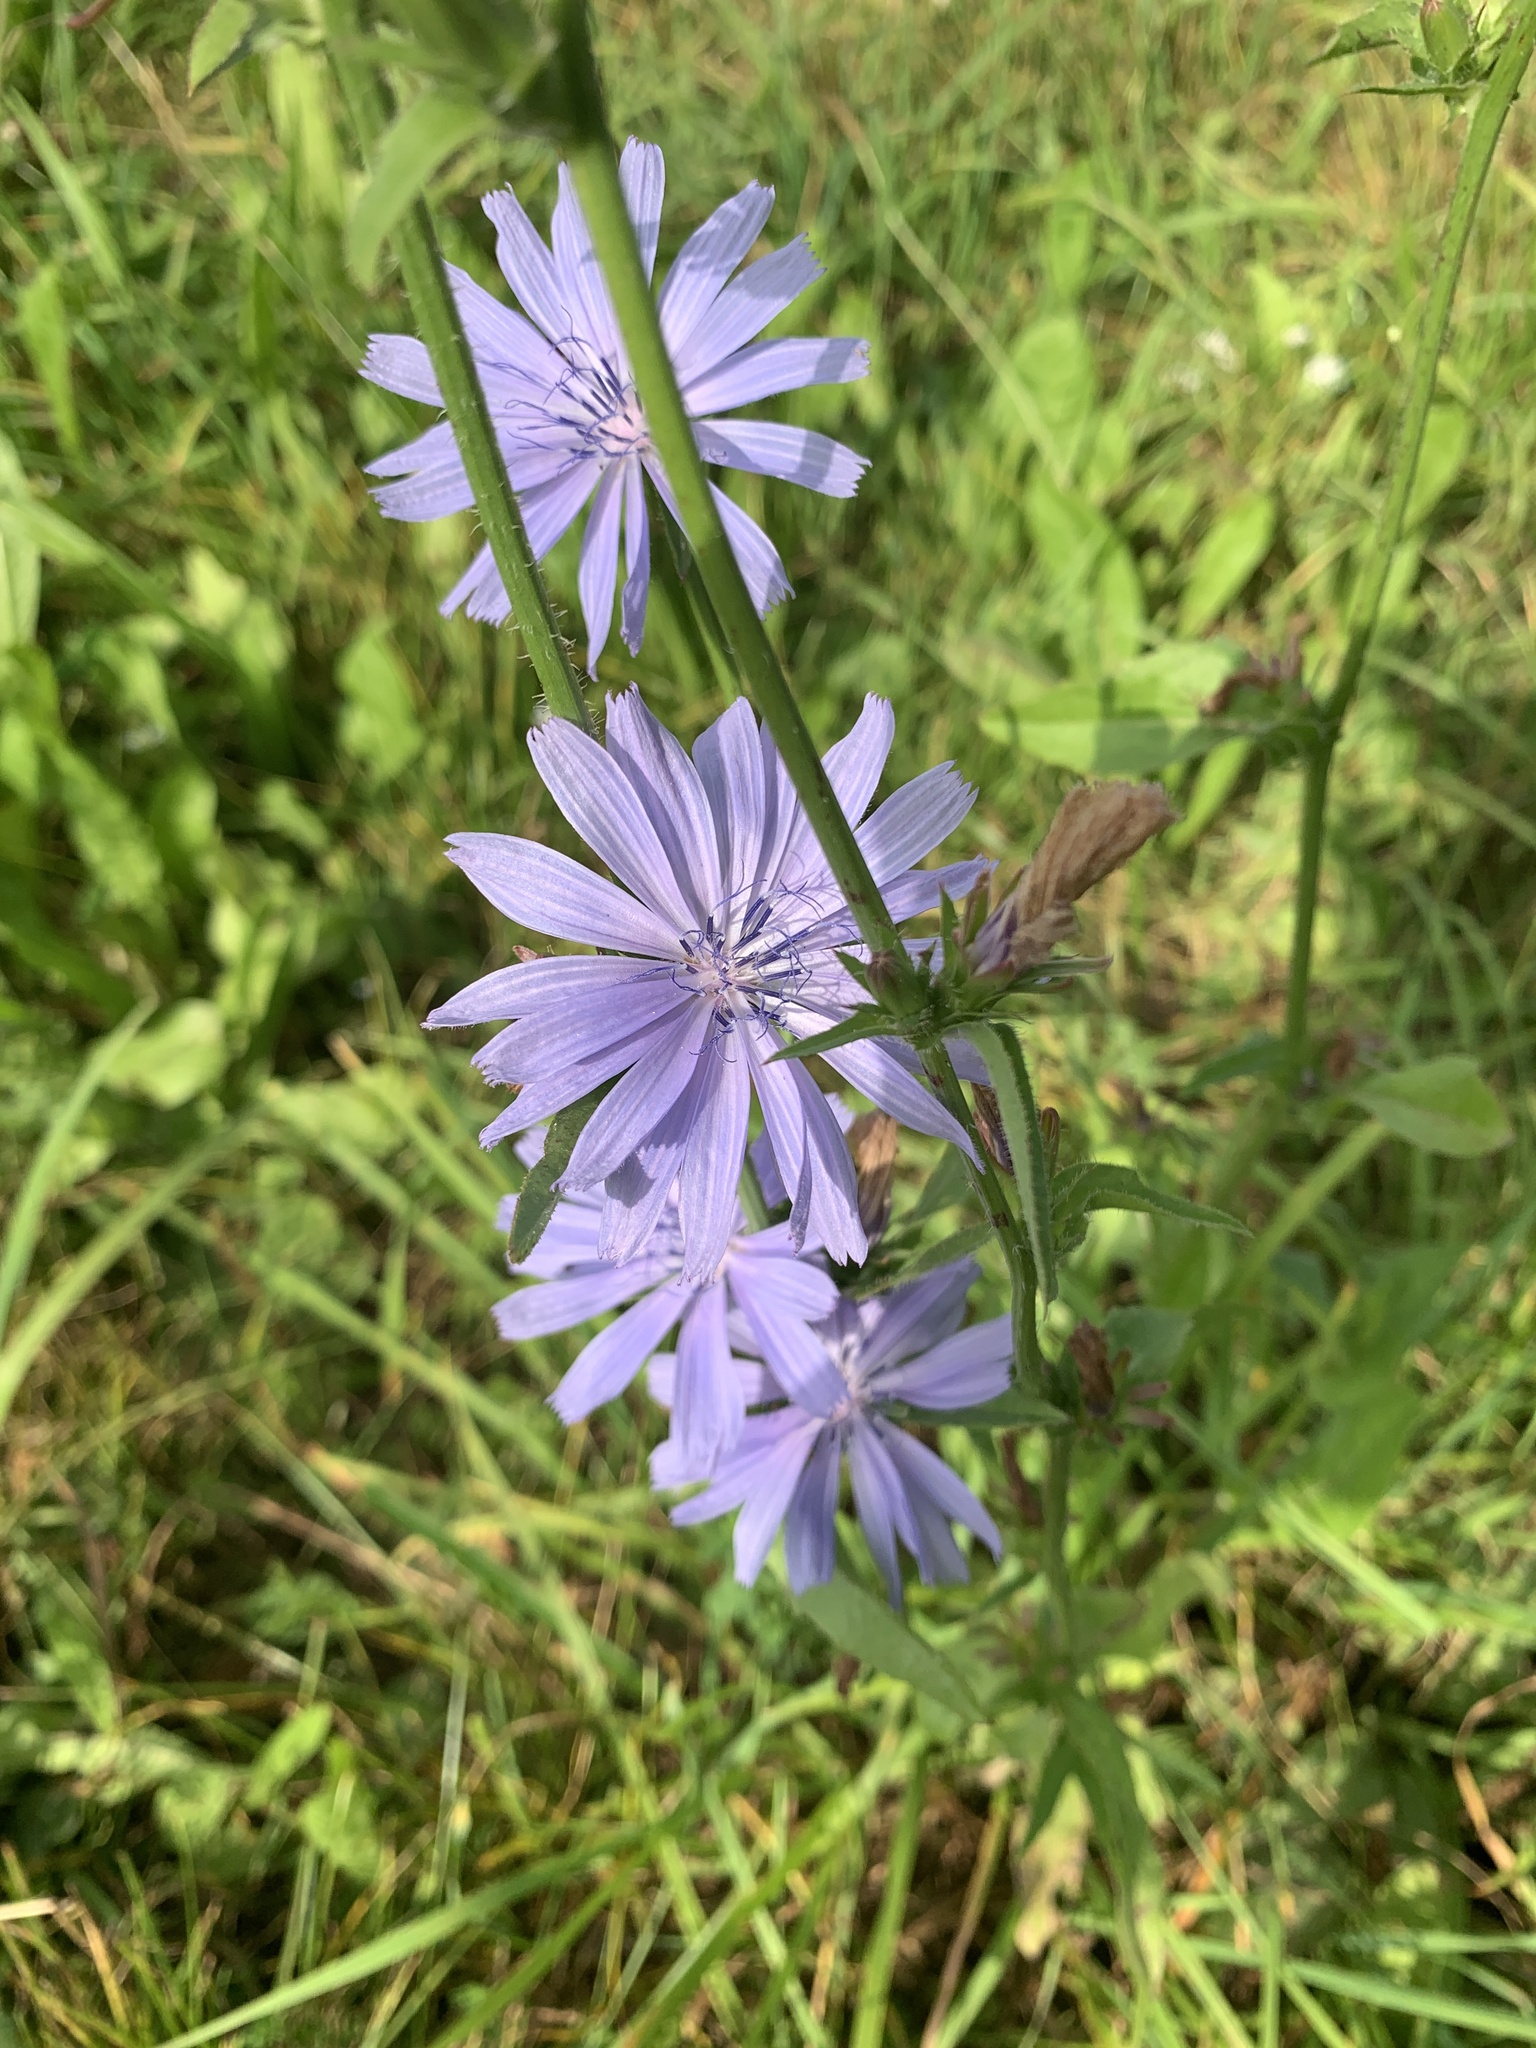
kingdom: Plantae
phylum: Tracheophyta
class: Magnoliopsida
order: Asterales
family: Asteraceae
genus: Cichorium
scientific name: Cichorium intybus
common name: Chicory
